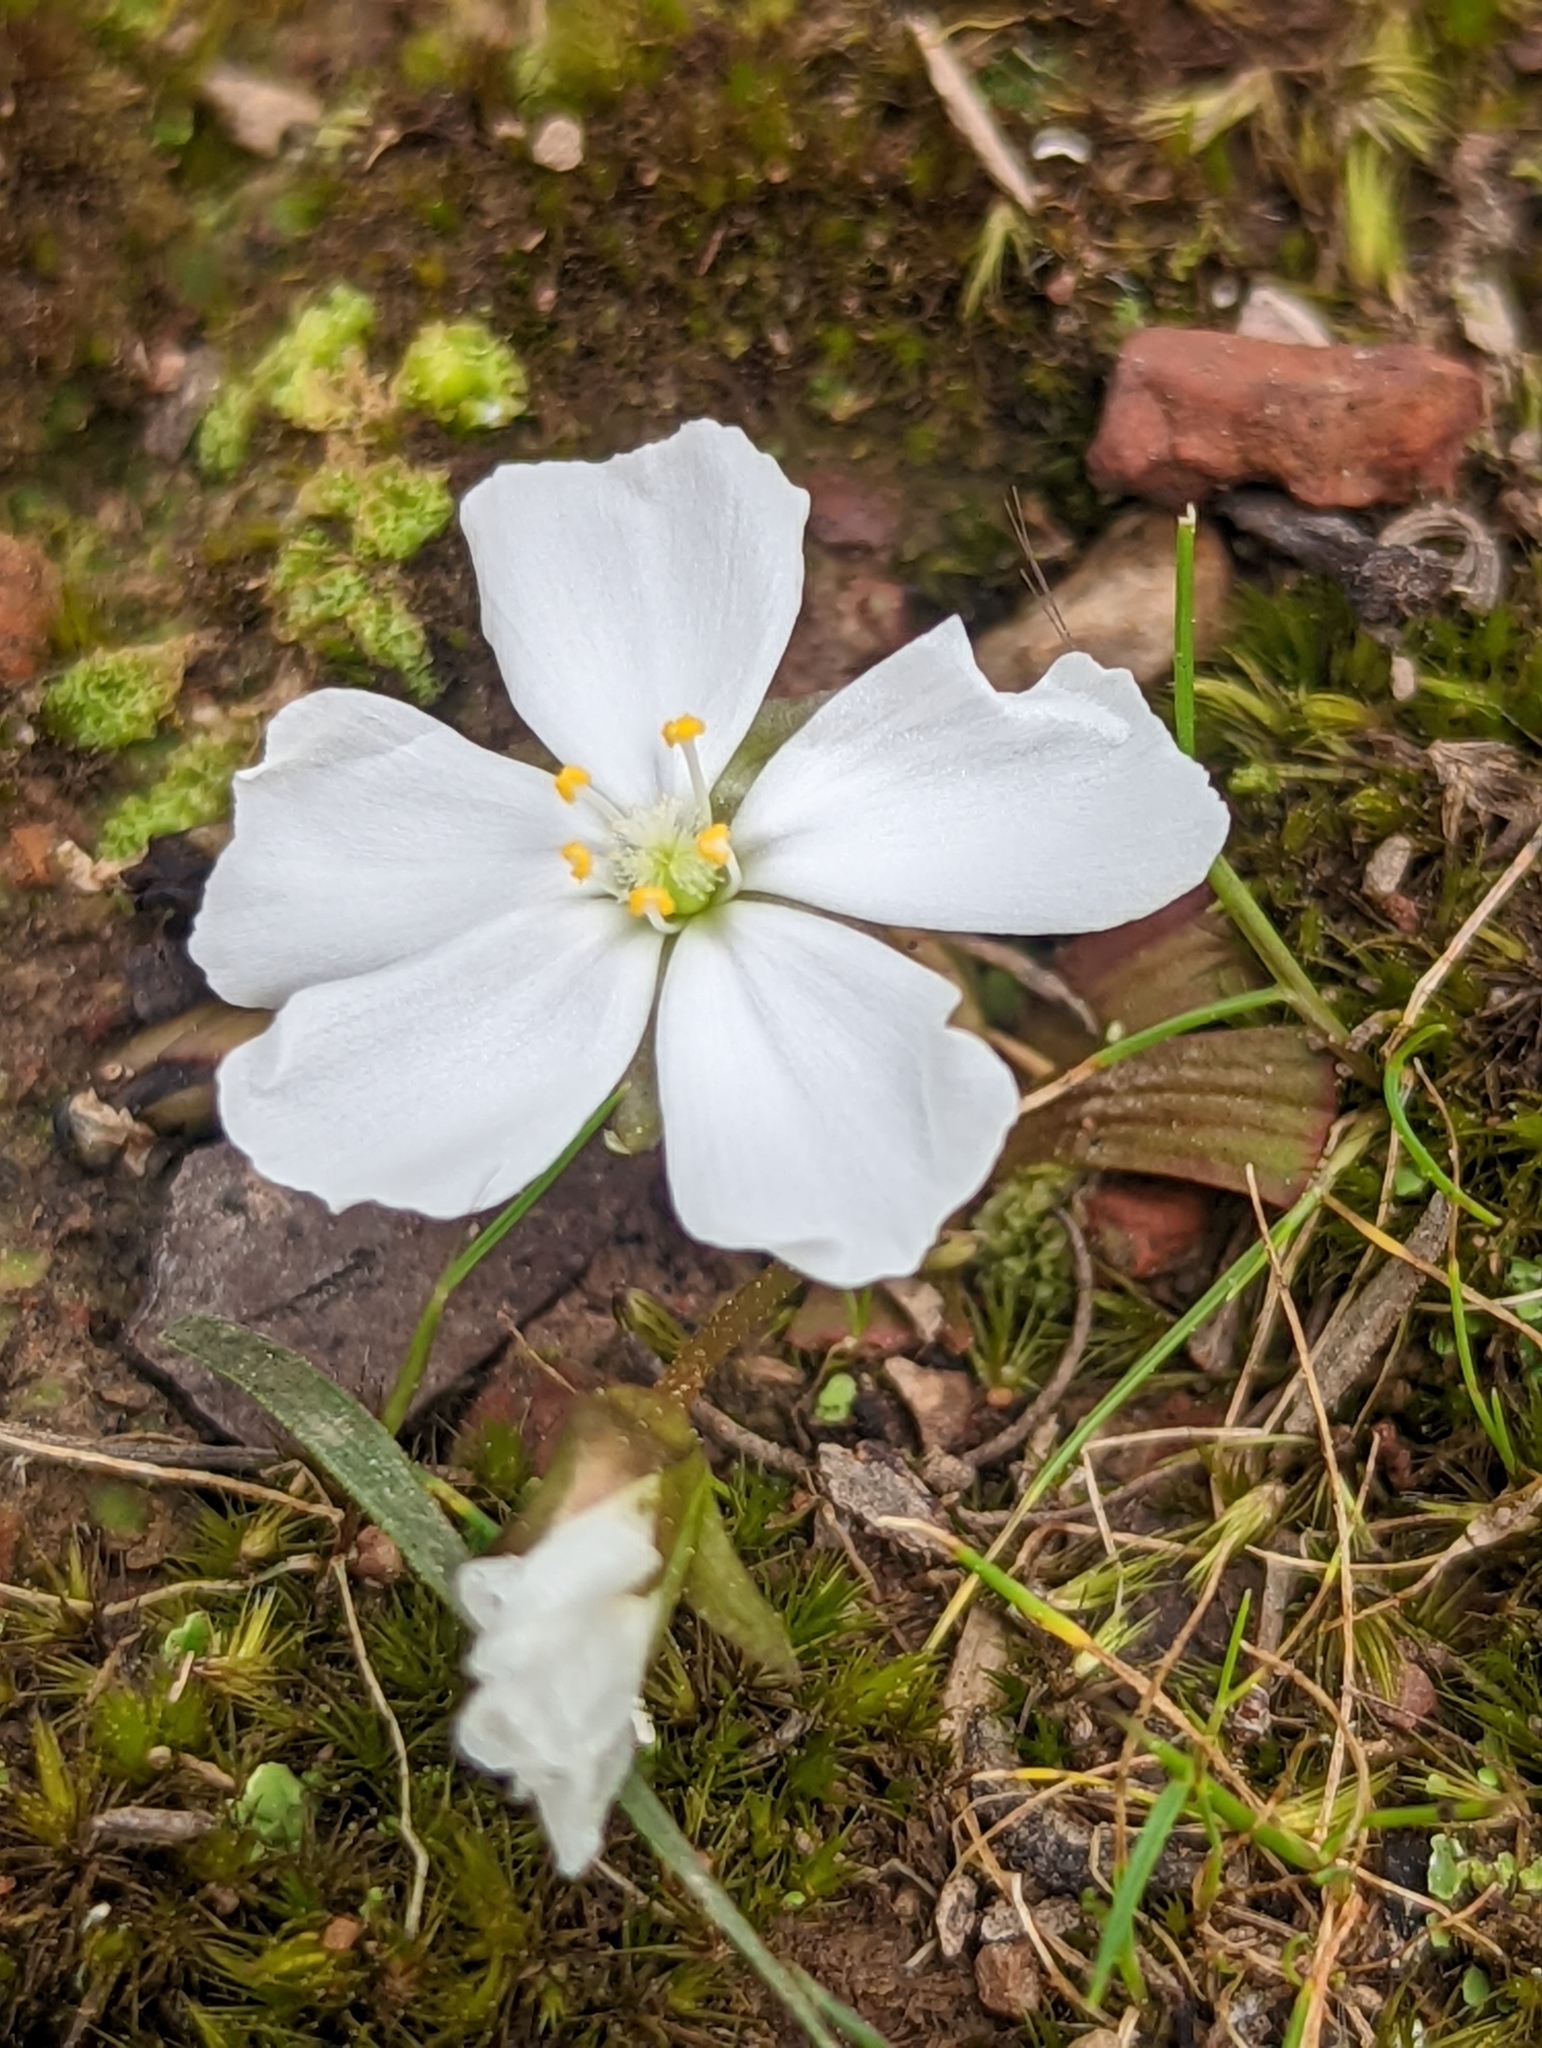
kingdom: Plantae
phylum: Tracheophyta
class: Magnoliopsida
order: Caryophyllales
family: Droseraceae
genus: Drosera
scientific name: Drosera aberrans
